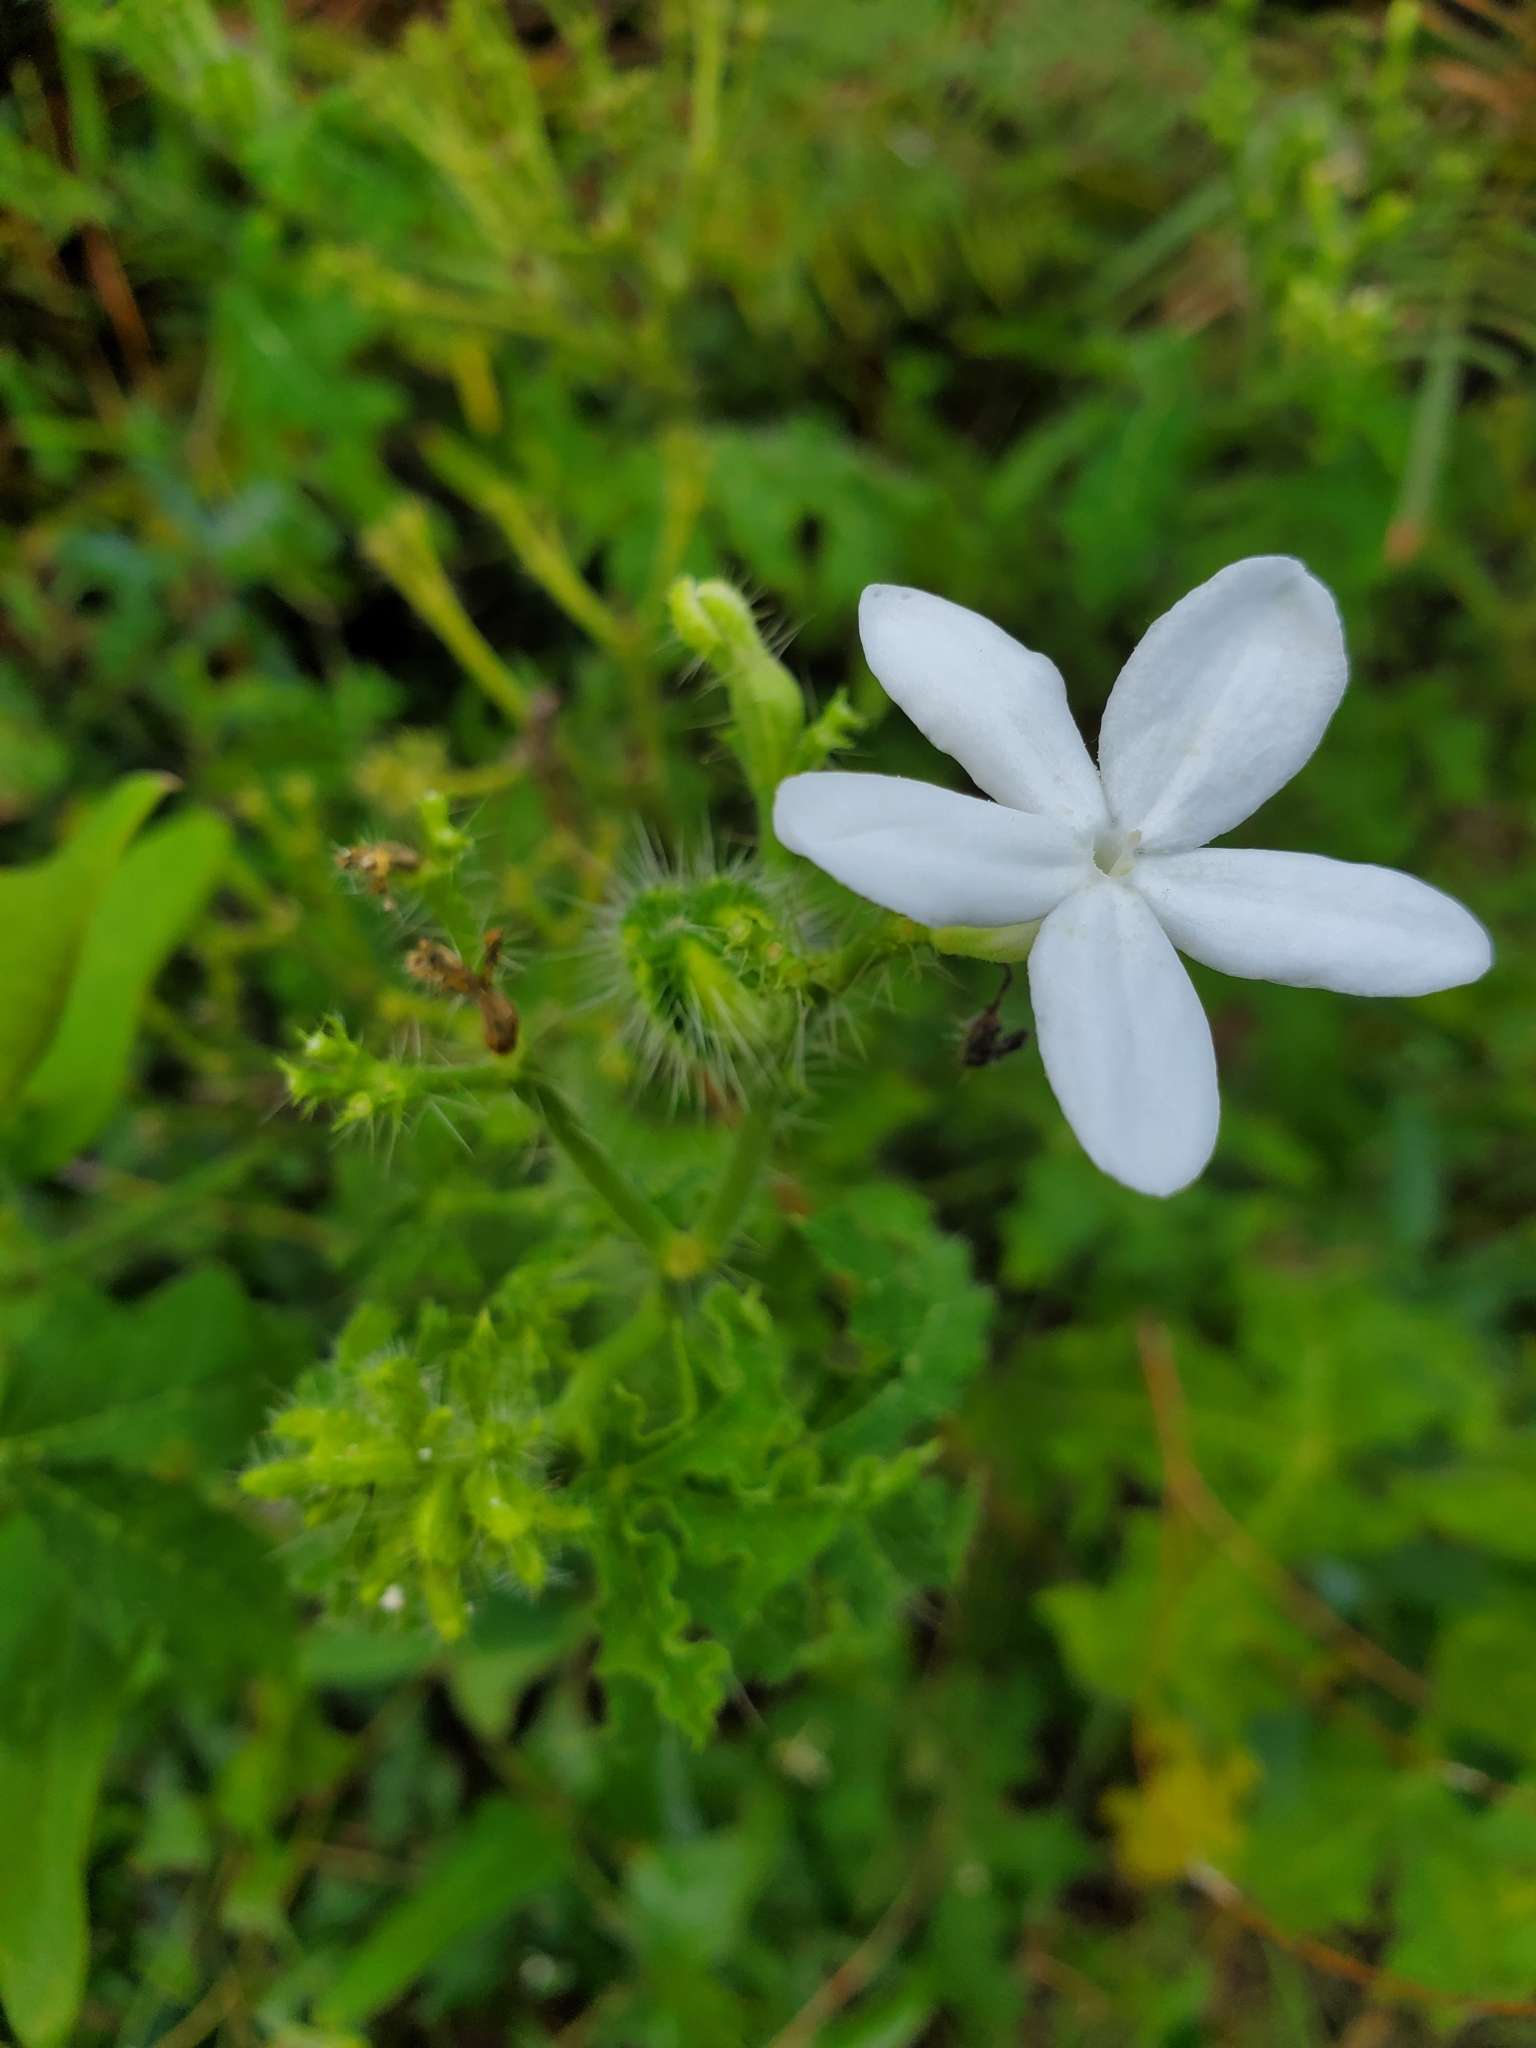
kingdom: Plantae
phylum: Tracheophyta
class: Magnoliopsida
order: Malpighiales
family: Euphorbiaceae
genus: Cnidoscolus
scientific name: Cnidoscolus stimulosus
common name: Bull-nettle
